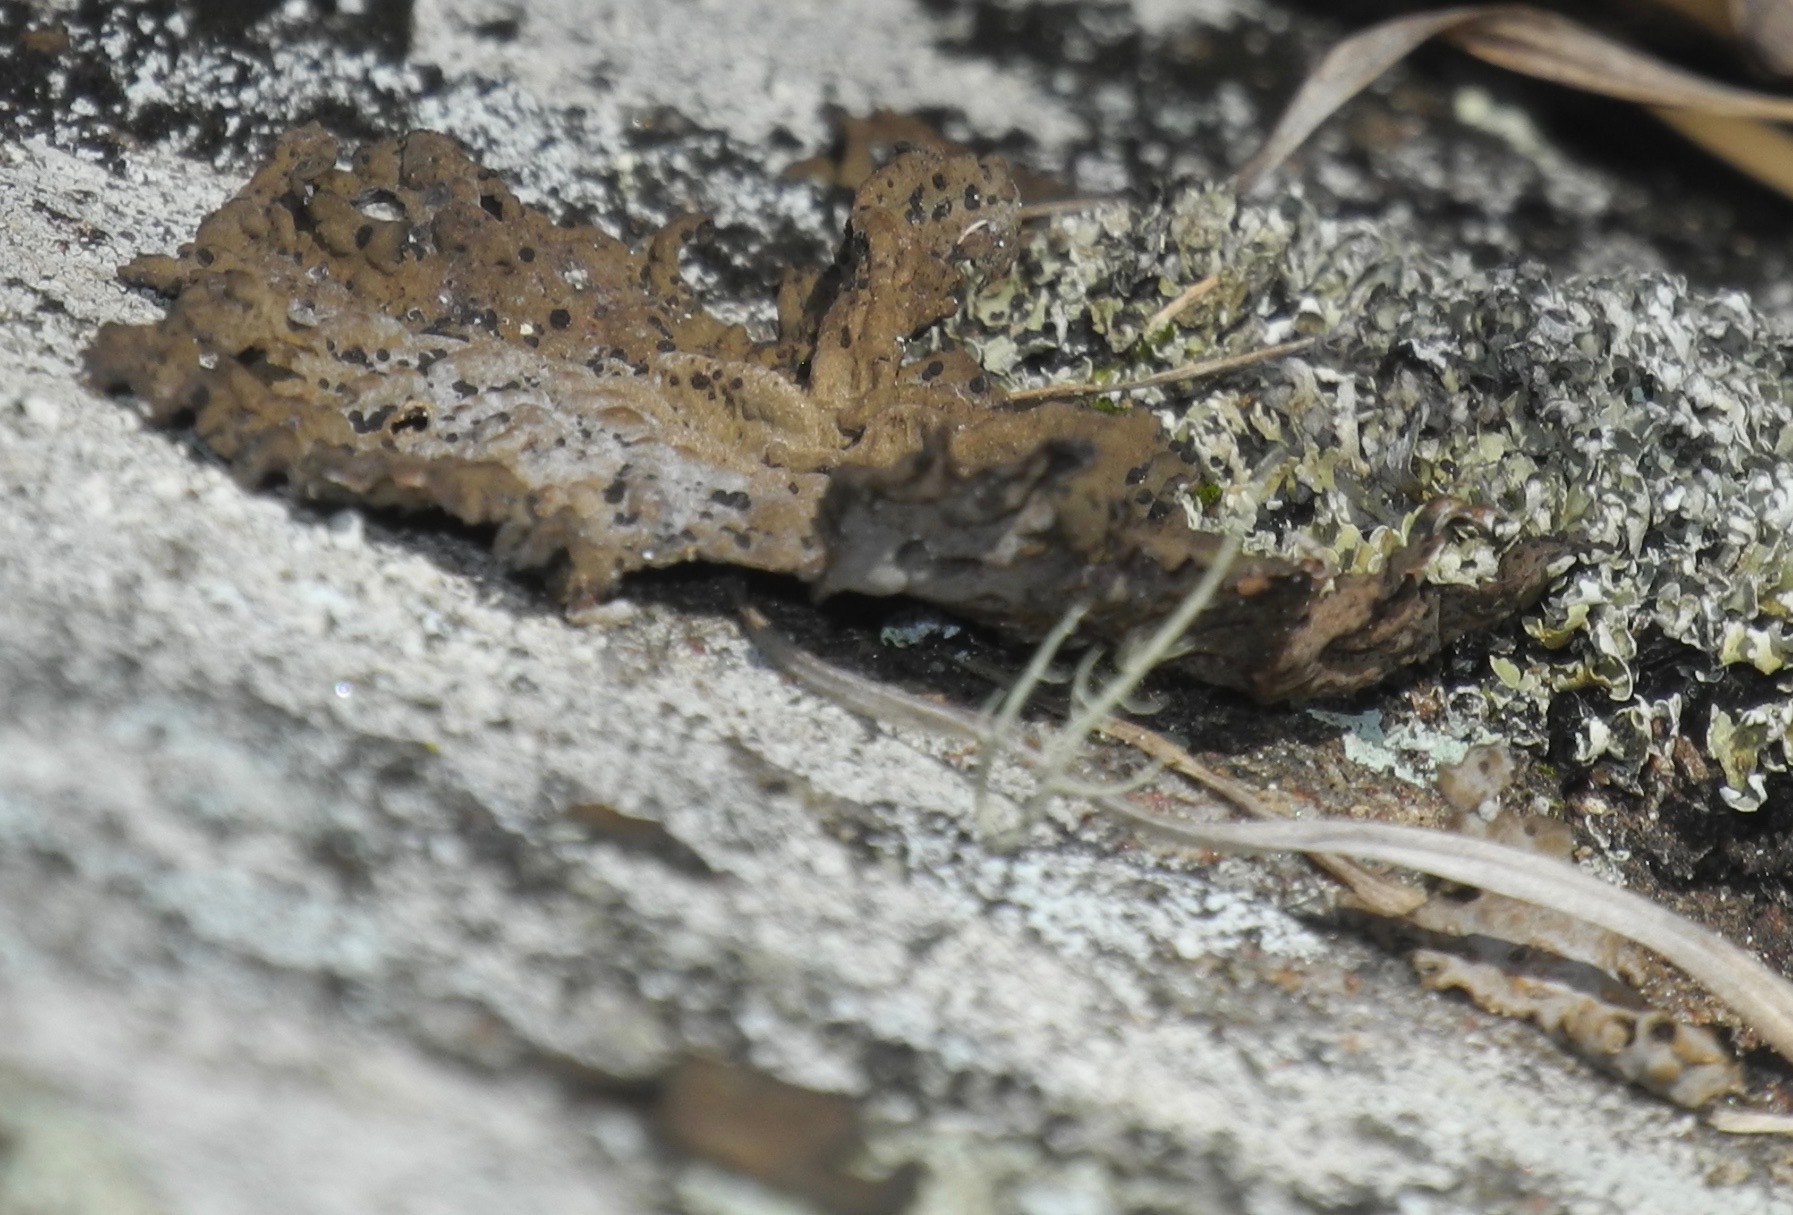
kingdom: Fungi
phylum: Ascomycota
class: Lecanoromycetes
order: Umbilicariales
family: Umbilicariaceae
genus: Lasallia
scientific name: Lasallia papulosa
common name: Common toadskin lichen
